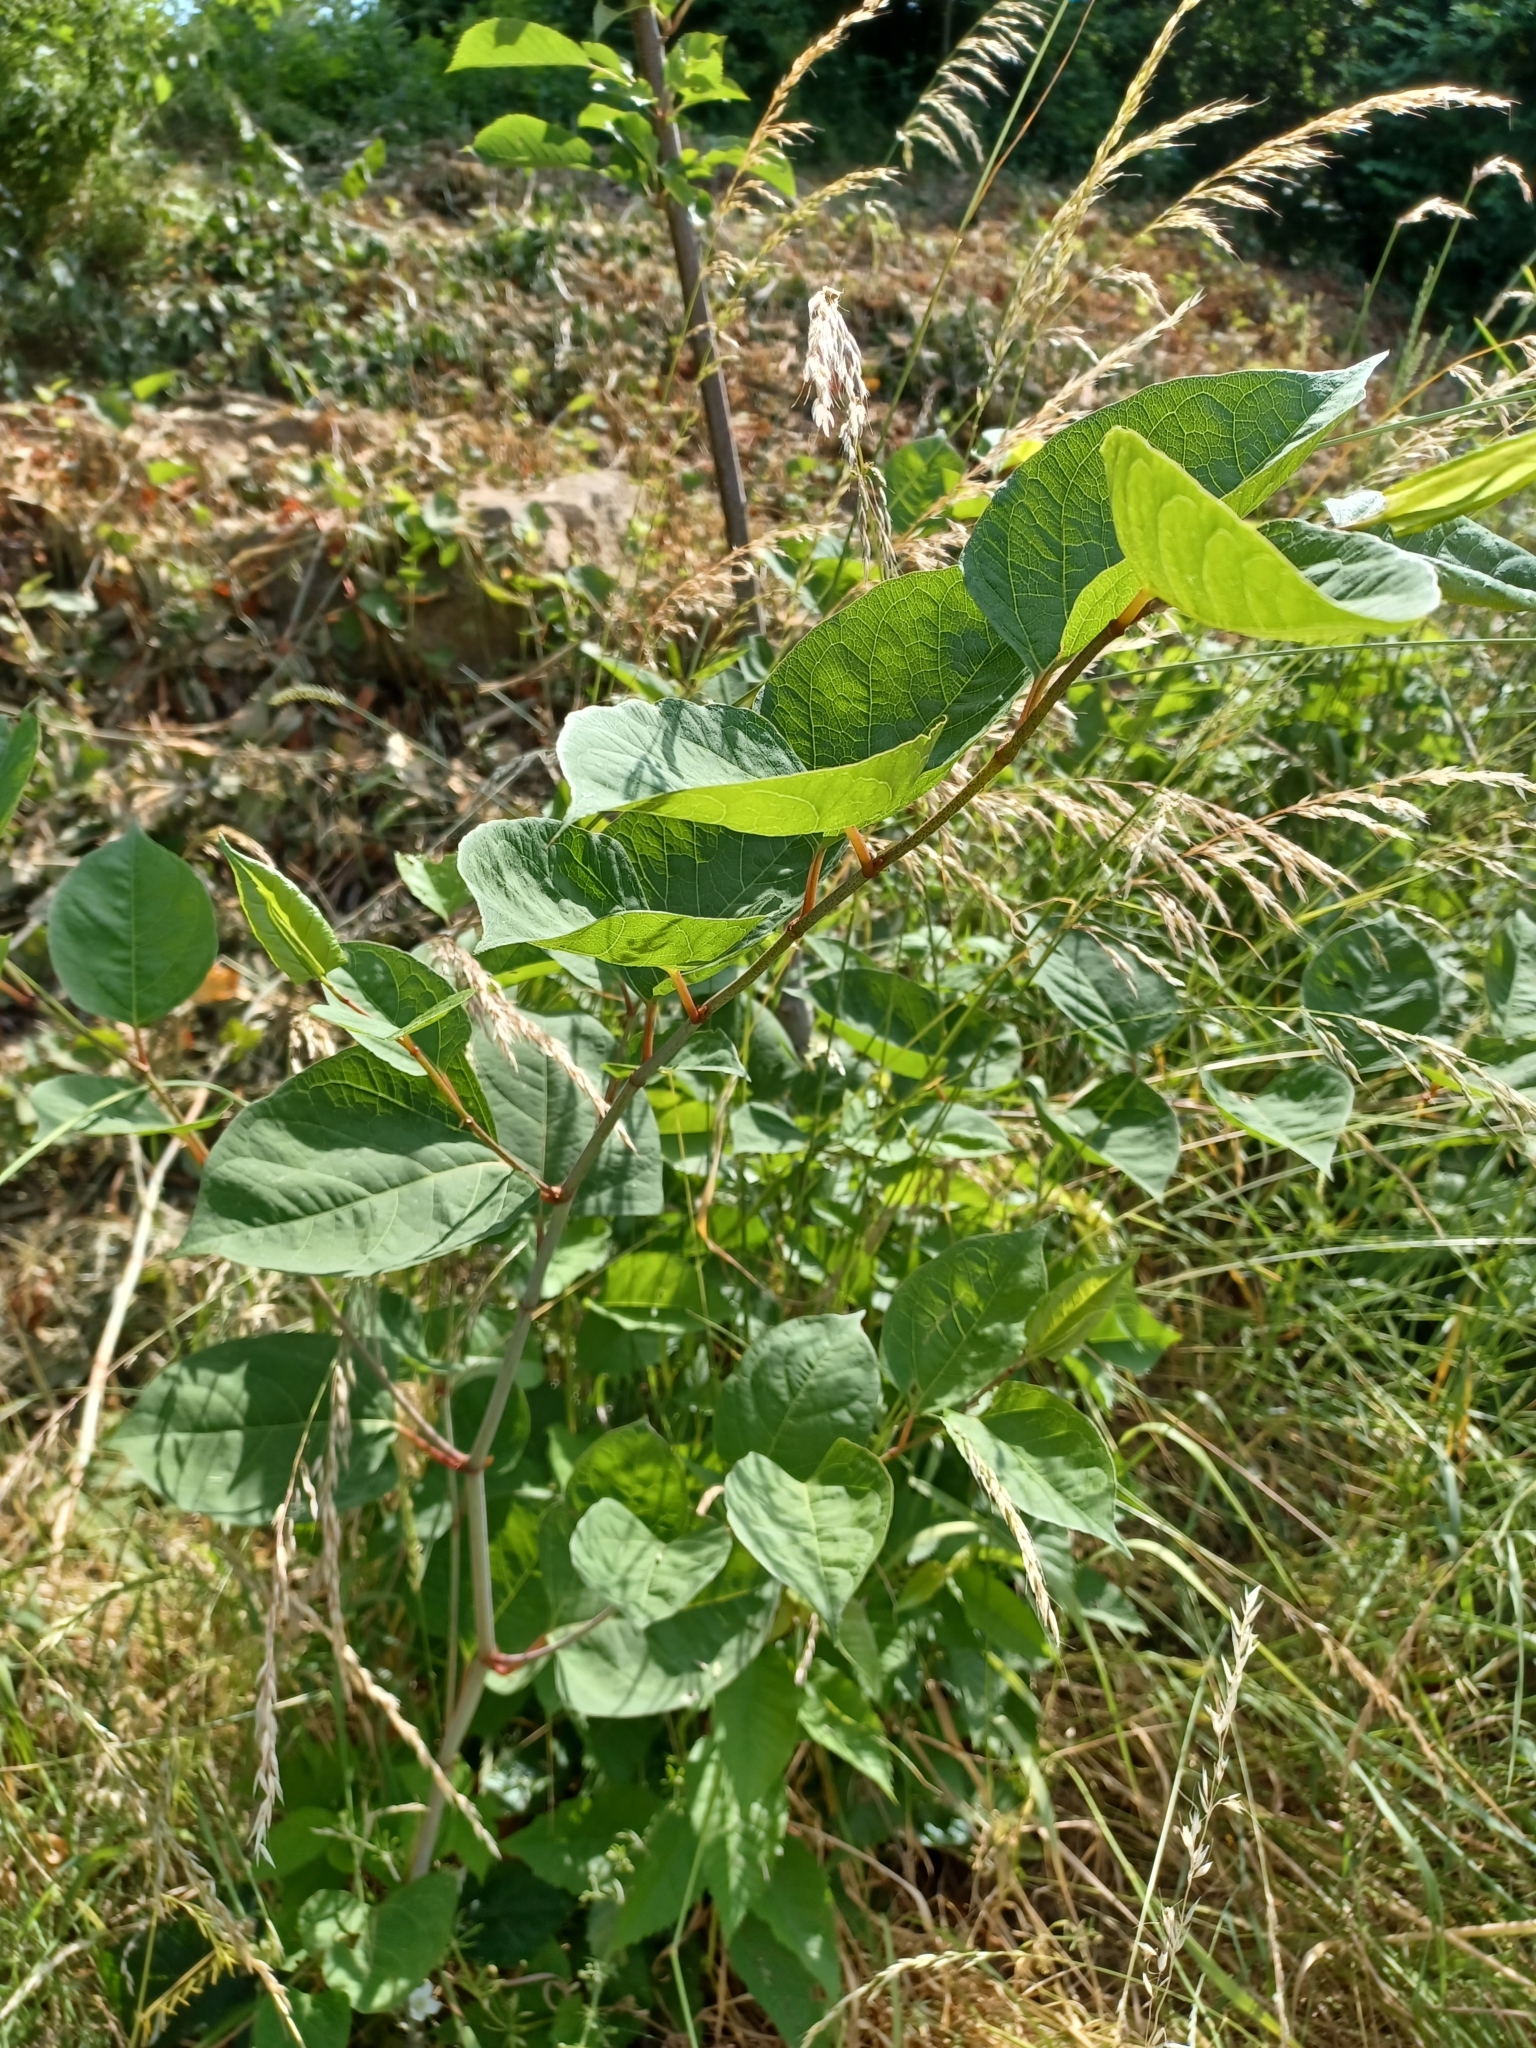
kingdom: Plantae
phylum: Tracheophyta
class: Magnoliopsida
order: Caryophyllales
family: Polygonaceae
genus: Reynoutria
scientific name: Reynoutria japonica
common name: Japanese knotweed
